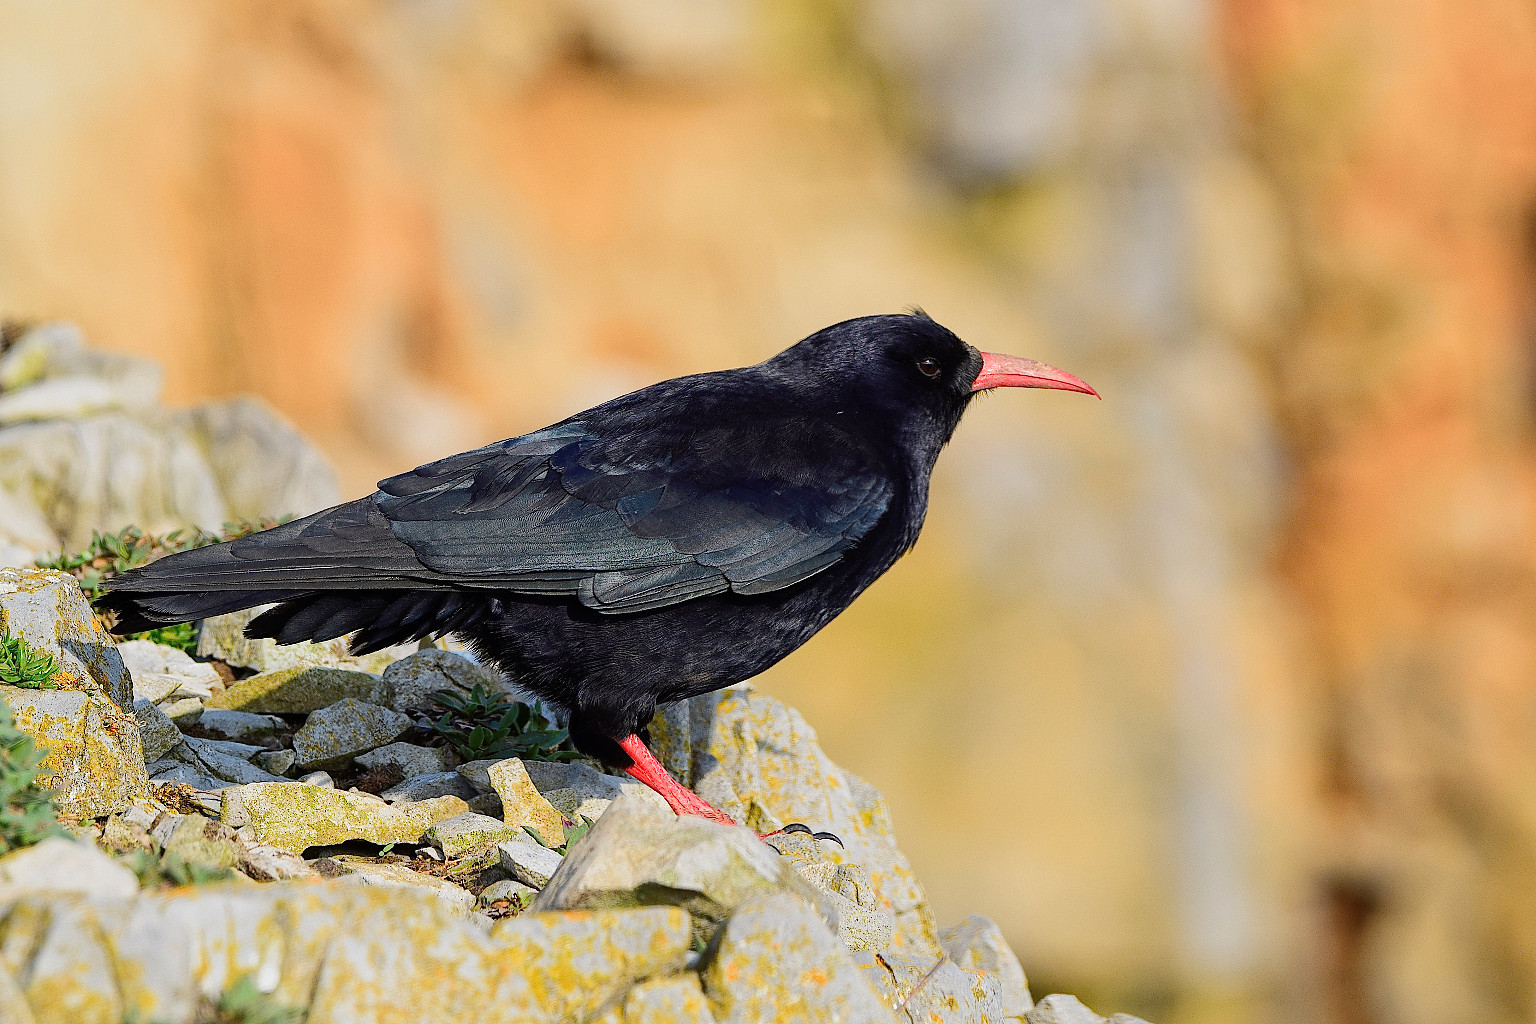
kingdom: Animalia
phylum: Chordata
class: Aves
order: Passeriformes
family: Corvidae
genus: Pyrrhocorax
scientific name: Pyrrhocorax pyrrhocorax
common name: Red-billed chough
